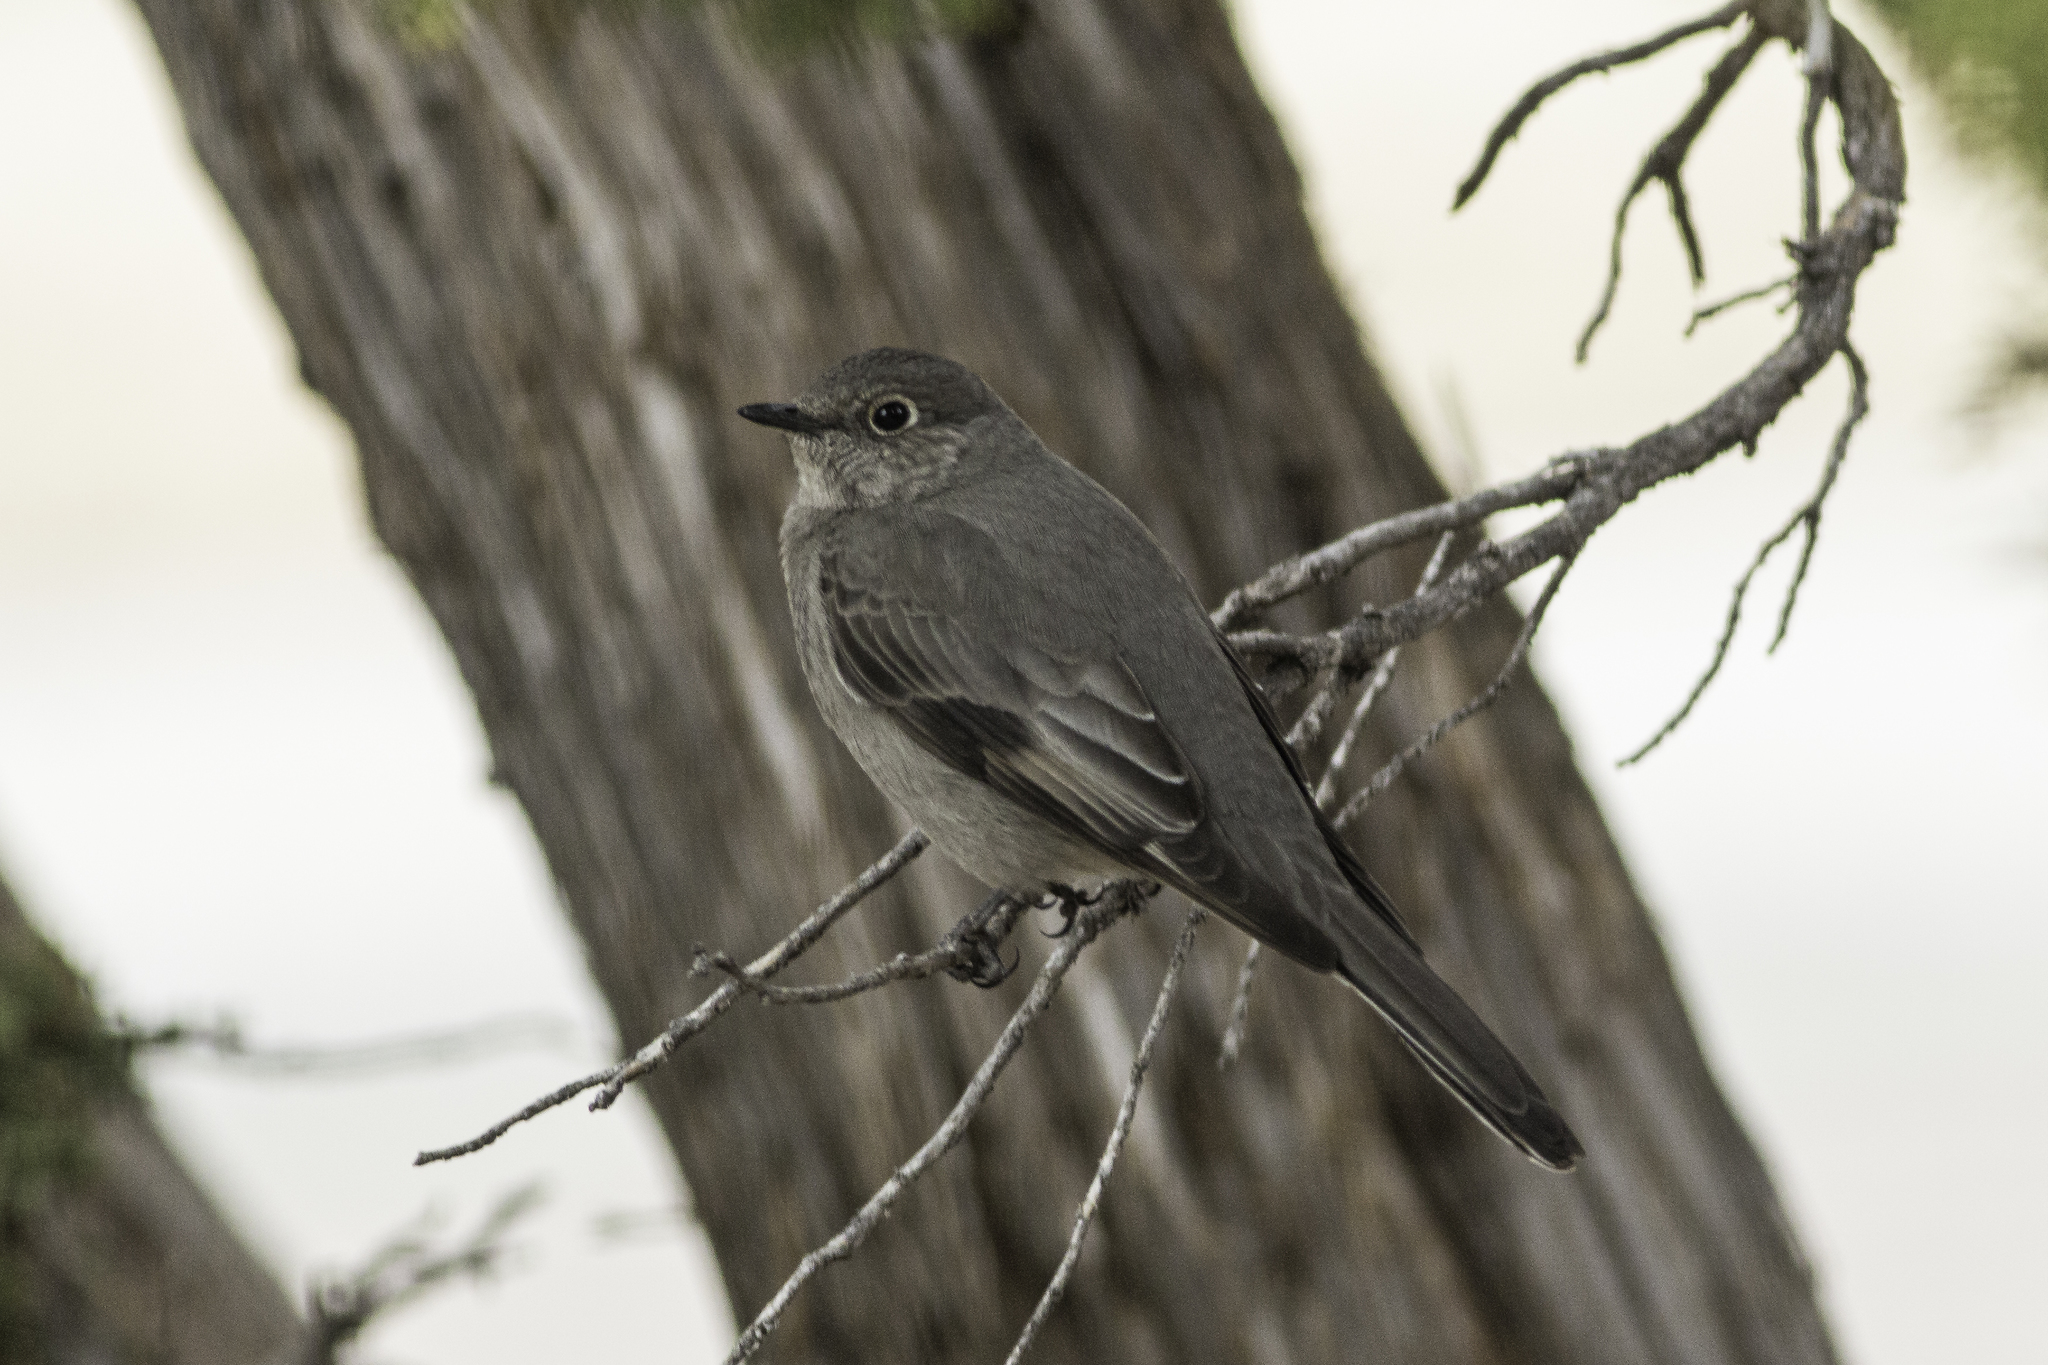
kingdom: Animalia
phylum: Chordata
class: Aves
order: Passeriformes
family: Turdidae
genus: Myadestes
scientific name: Myadestes townsendi
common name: Townsend's solitaire
